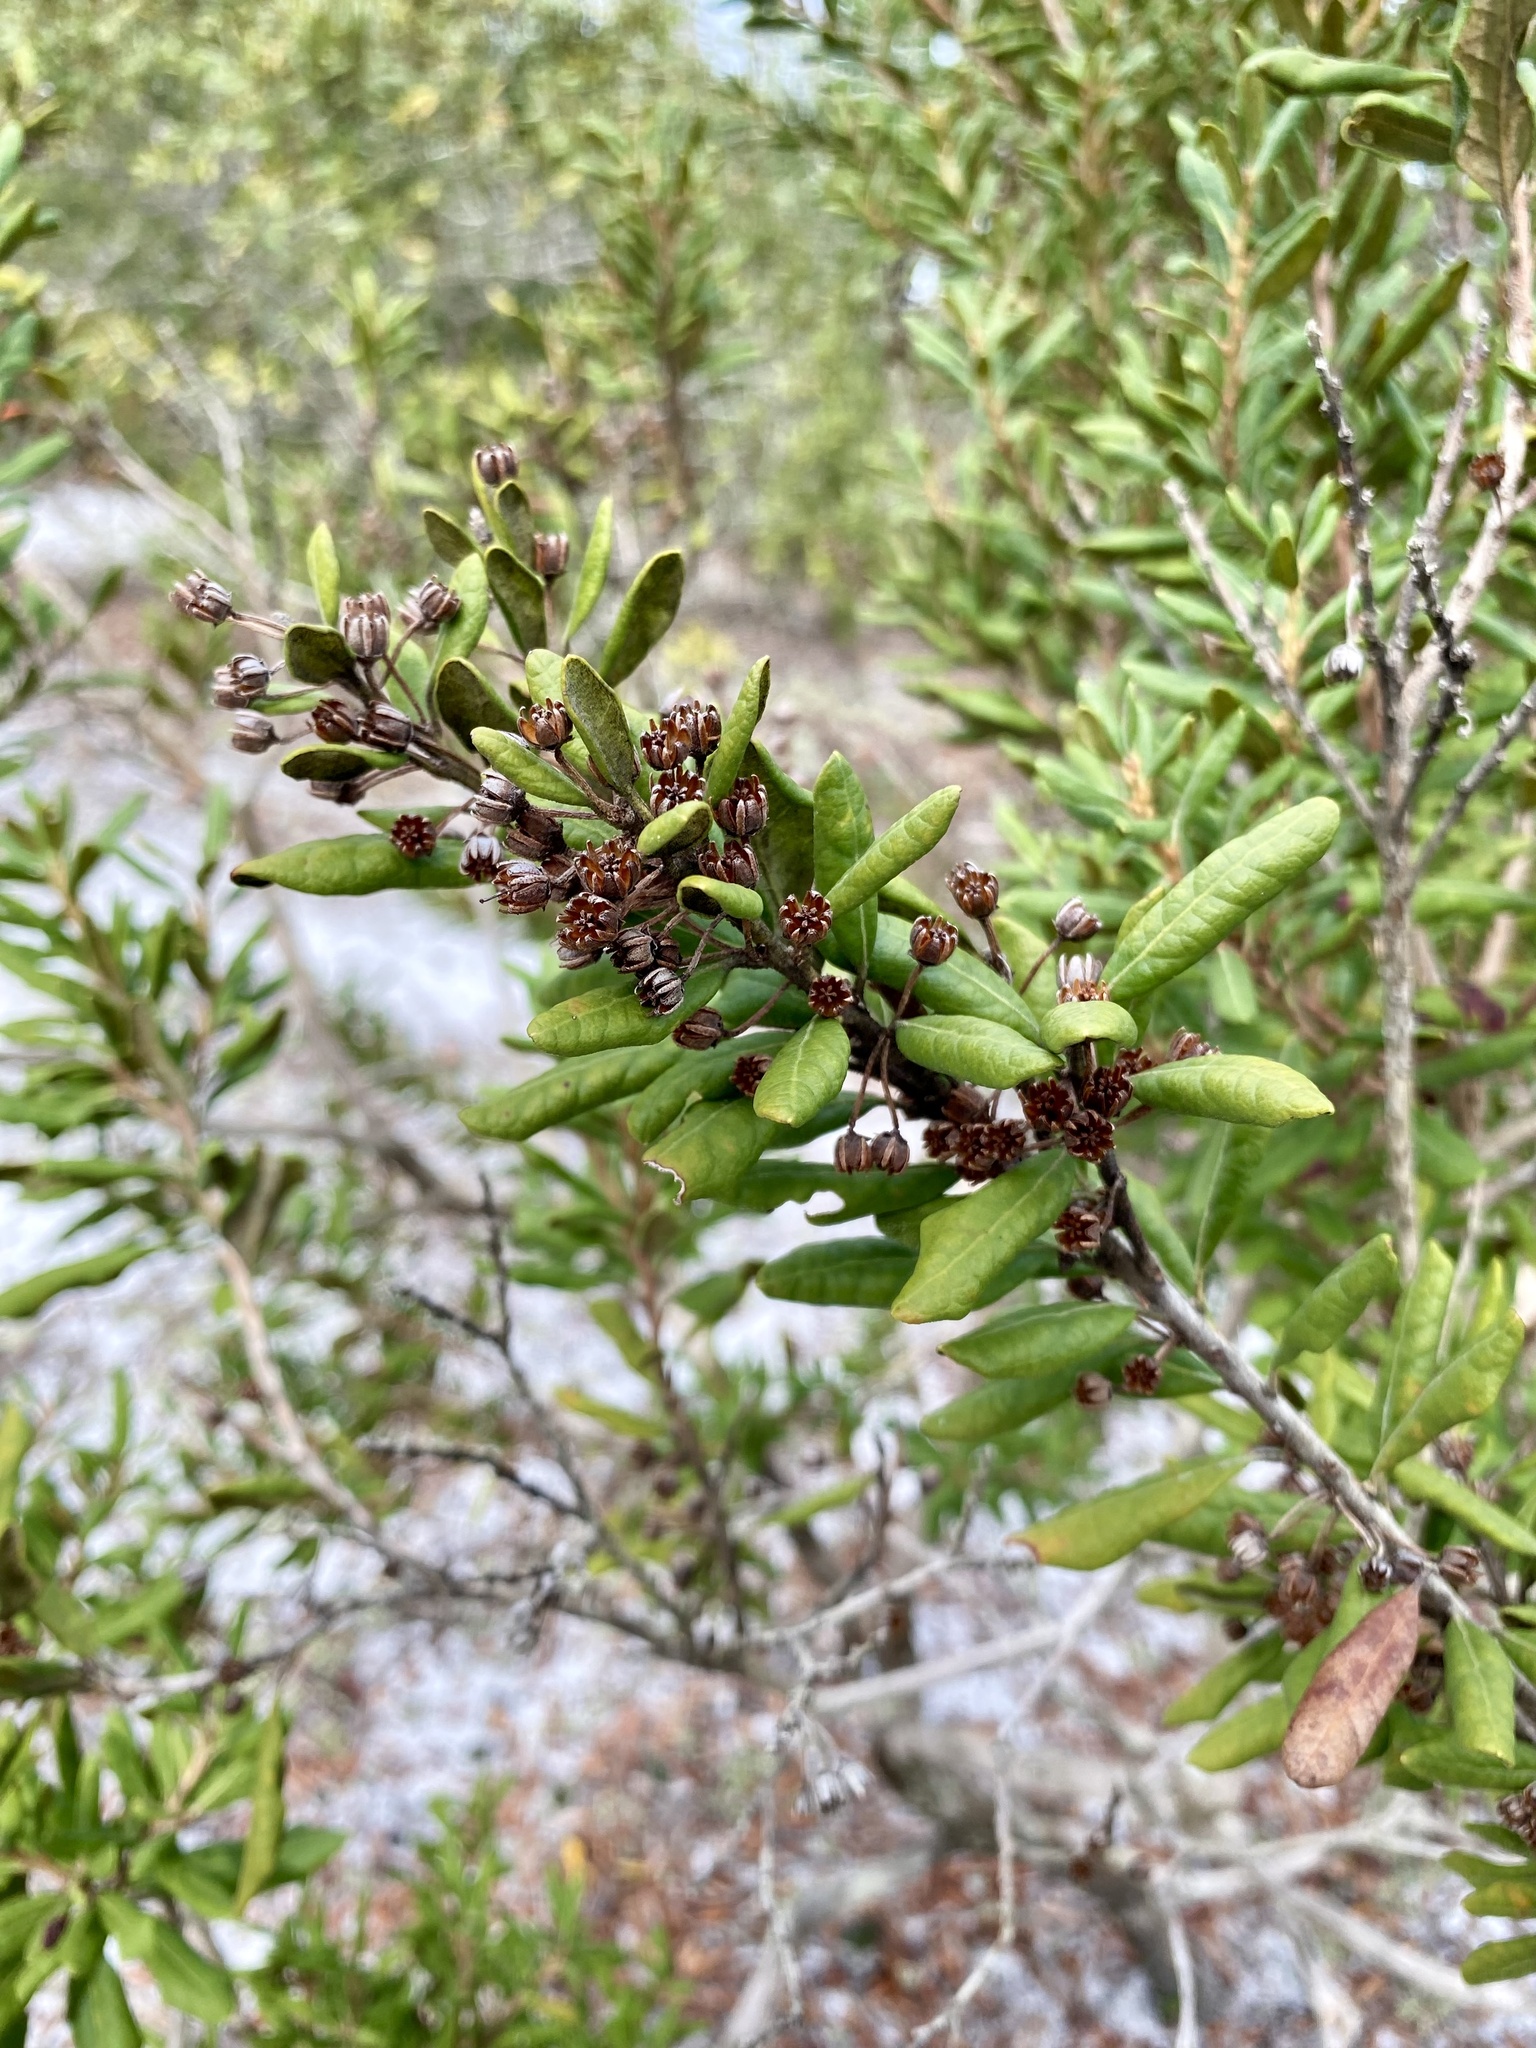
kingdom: Plantae
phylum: Tracheophyta
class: Magnoliopsida
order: Ericales
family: Ericaceae
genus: Lyonia
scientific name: Lyonia ferruginea
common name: Rusty lyonia
